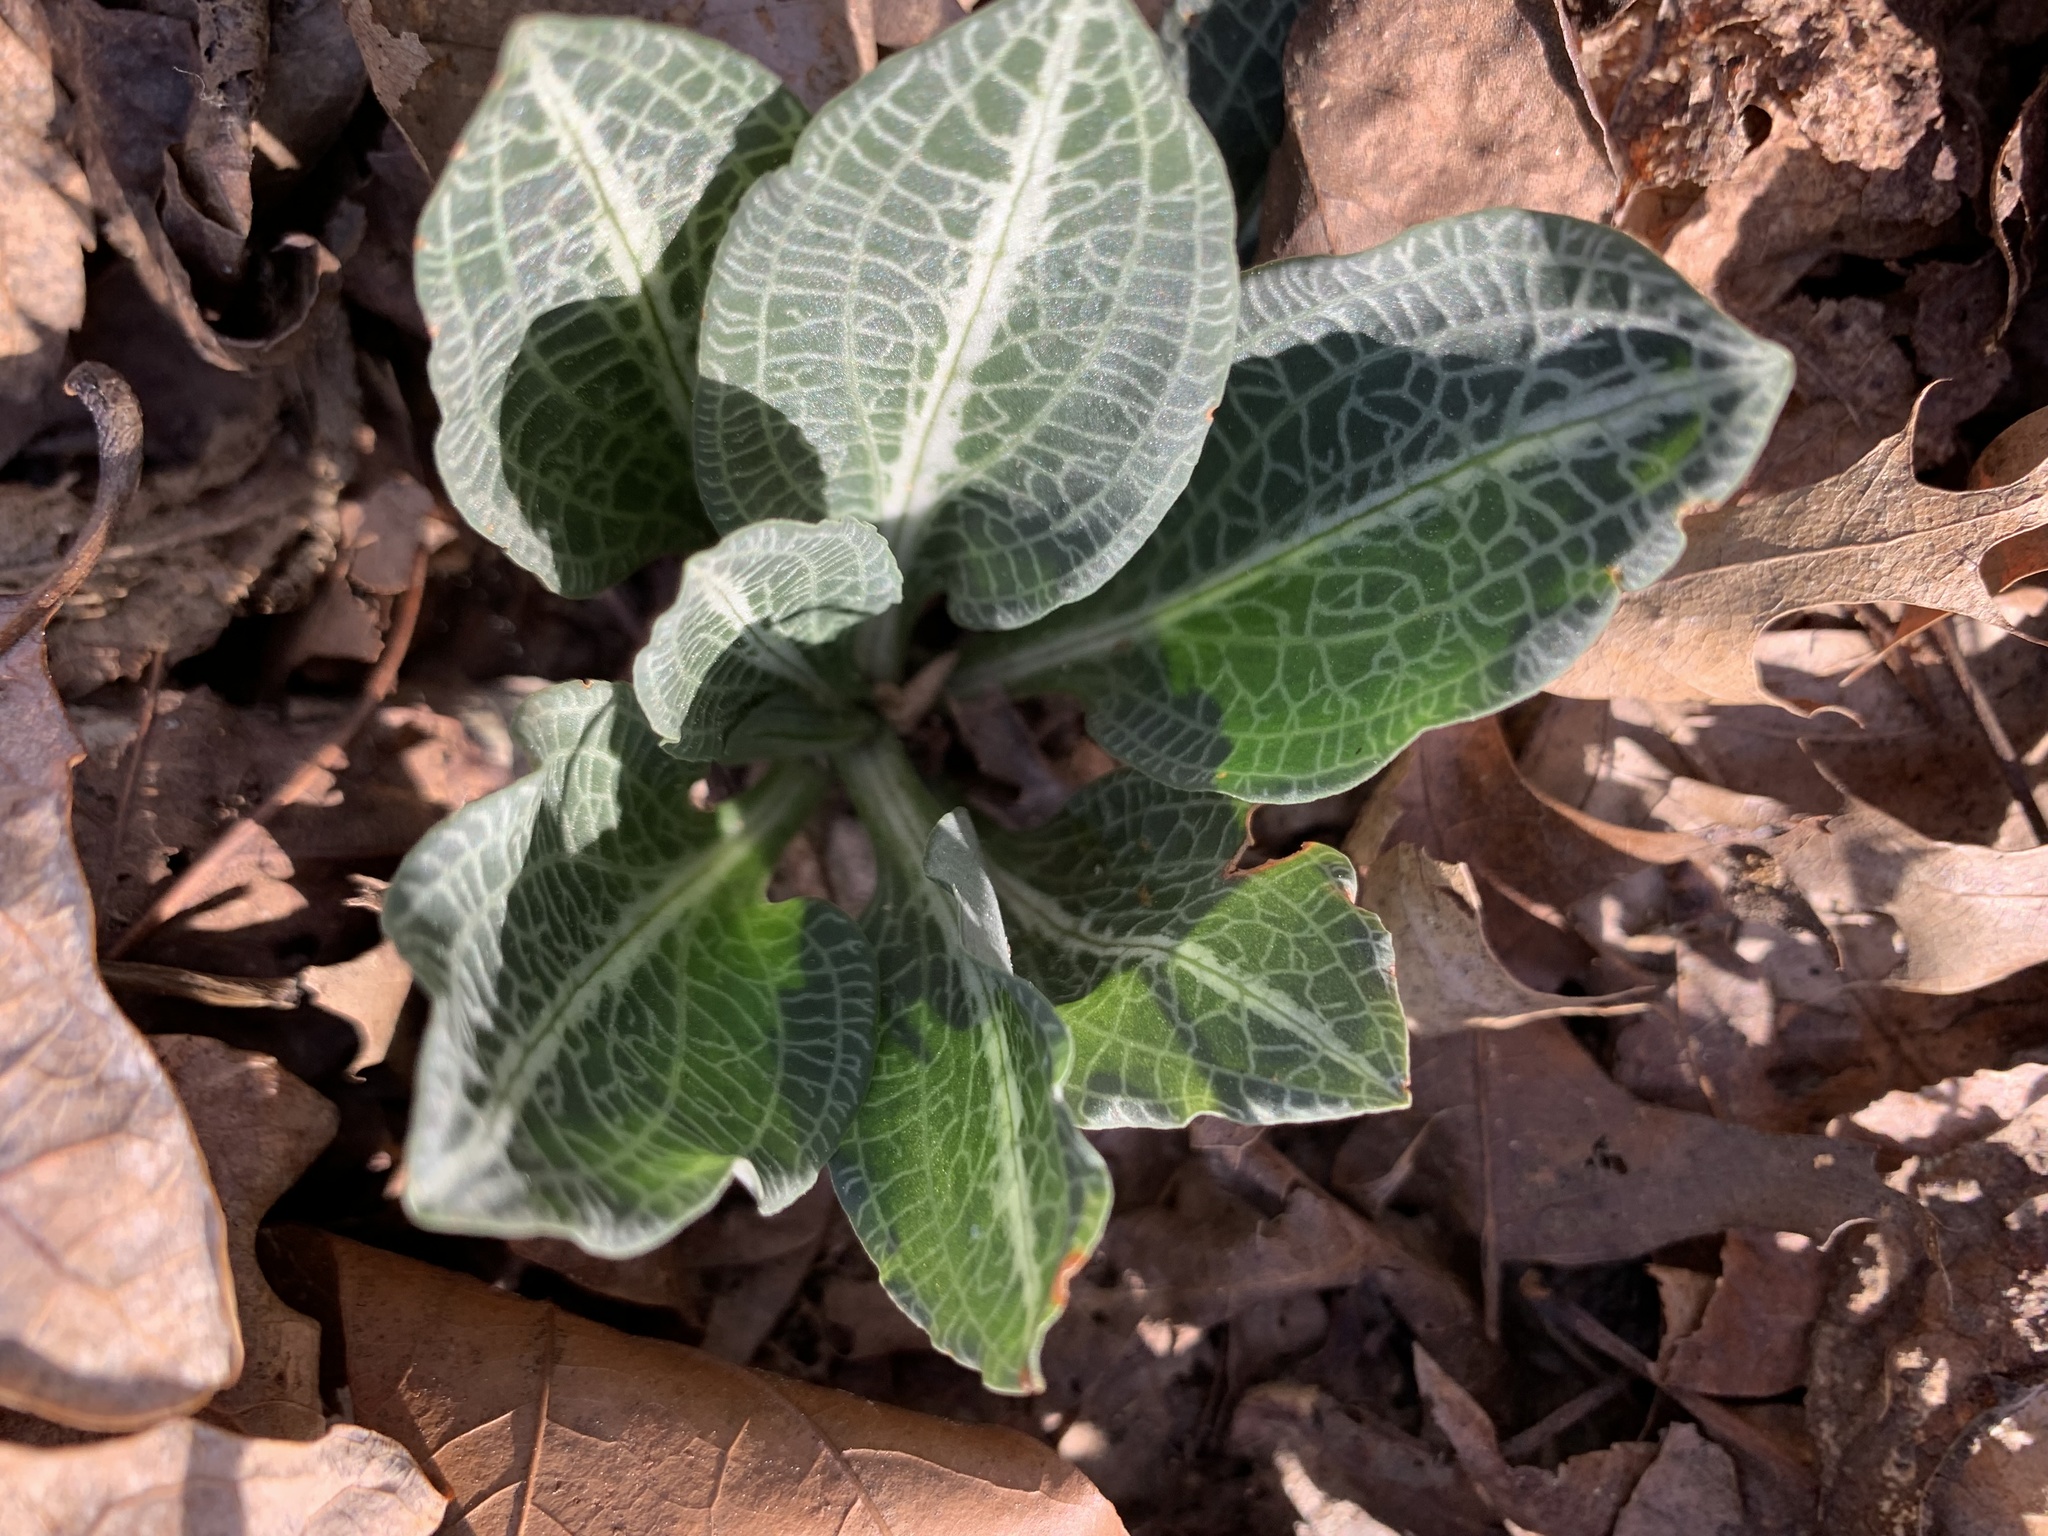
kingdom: Plantae
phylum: Tracheophyta
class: Liliopsida
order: Asparagales
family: Orchidaceae
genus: Goodyera
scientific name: Goodyera pubescens
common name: Downy rattlesnake-plantain
